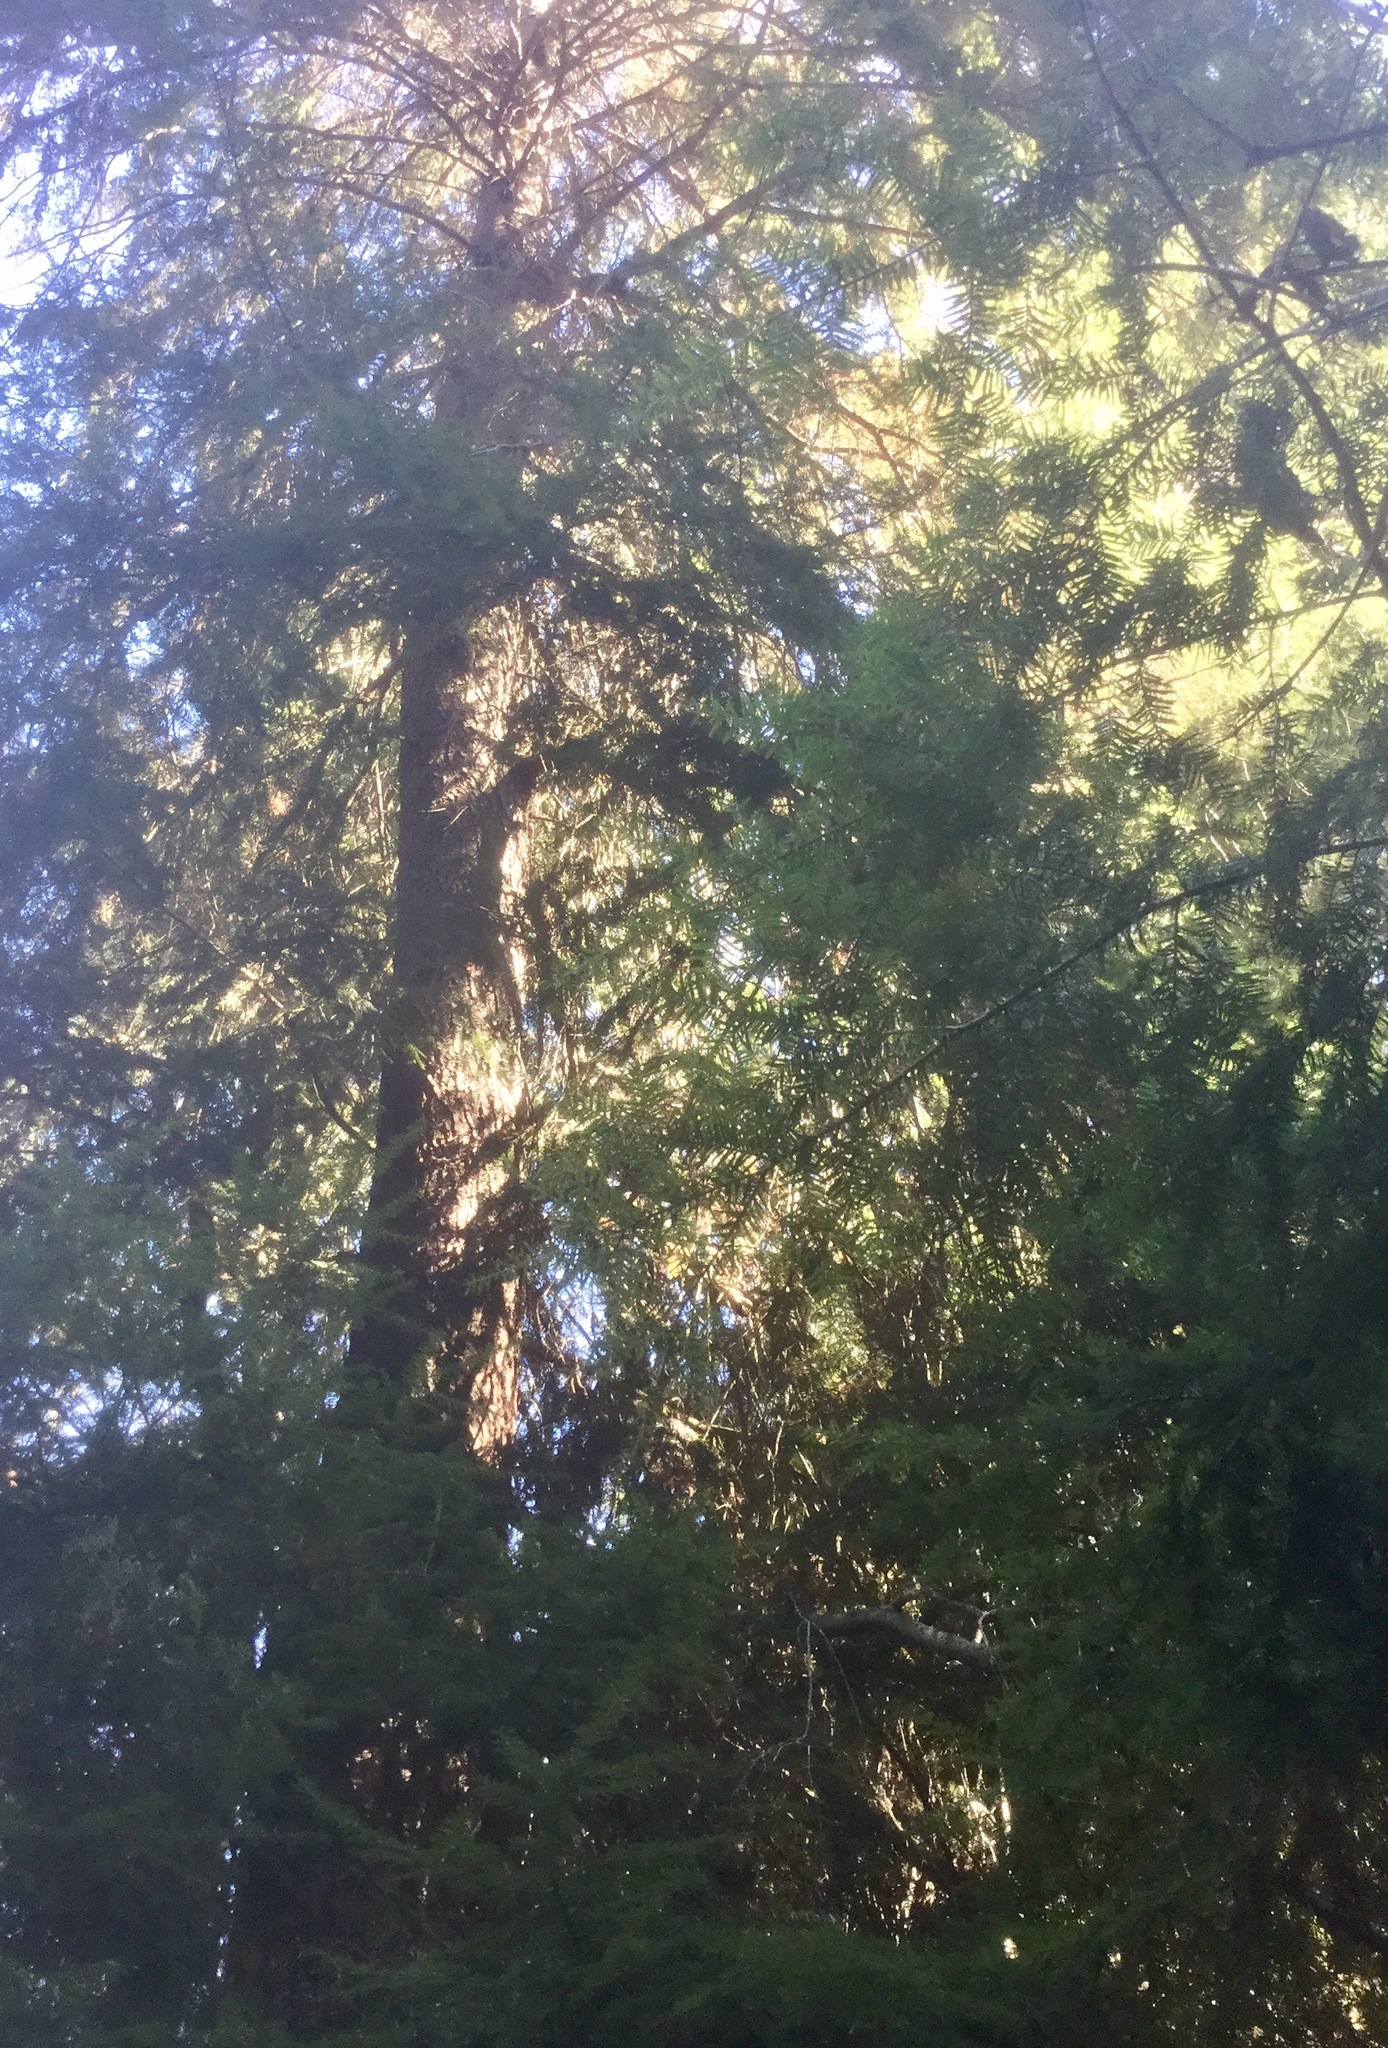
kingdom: Plantae
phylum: Tracheophyta
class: Pinopsida
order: Pinales
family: Pinaceae
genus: Tsuga
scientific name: Tsuga heterophylla
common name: Western hemlock
